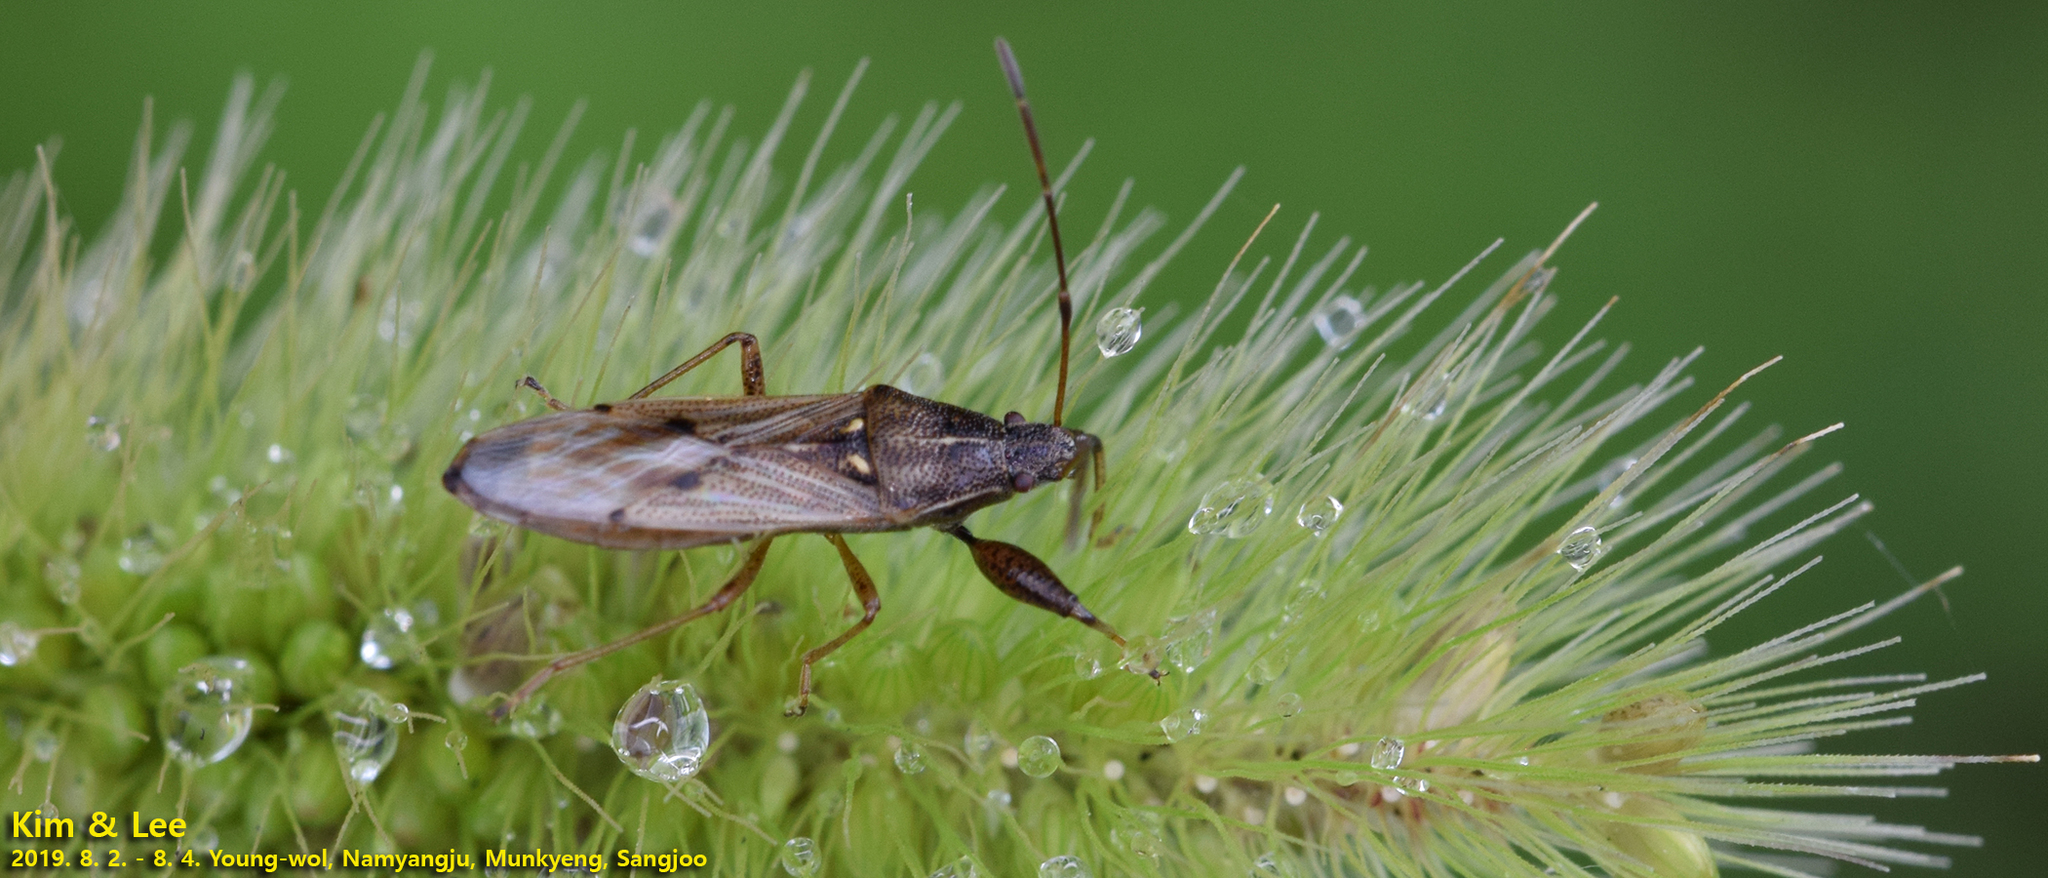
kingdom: Animalia
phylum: Arthropoda
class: Insecta
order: Hemiptera
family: Pachygronthidae
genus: Pachygrontha
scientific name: Pachygrontha antennata
